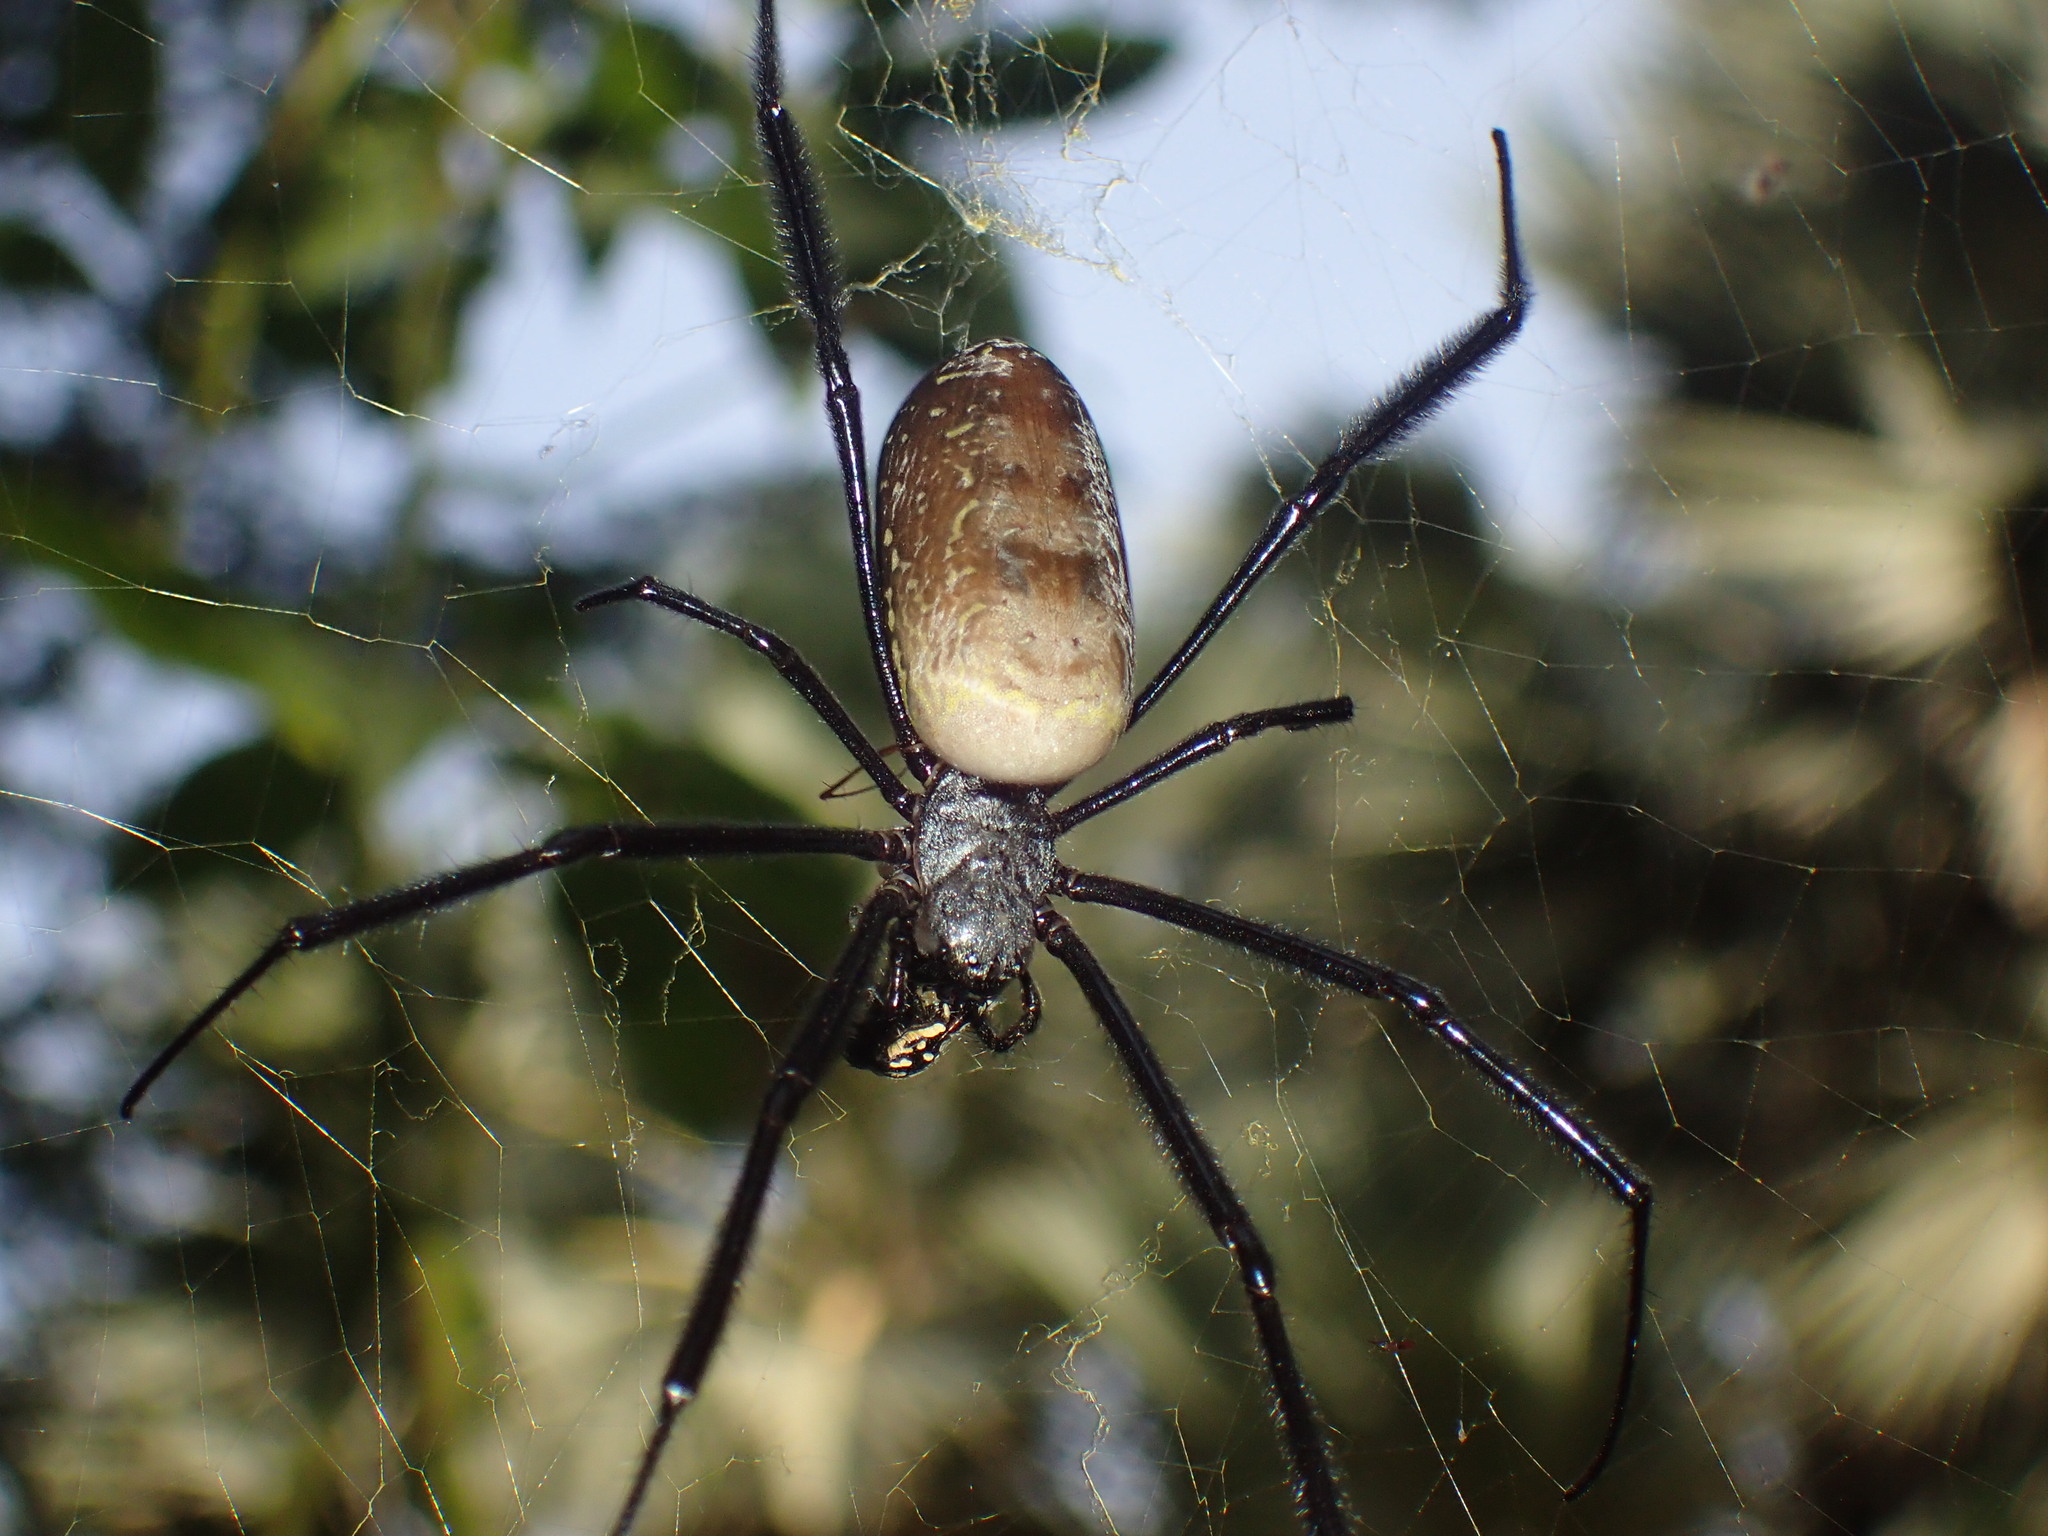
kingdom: Animalia
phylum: Arthropoda
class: Arachnida
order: Araneae
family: Araneidae
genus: Trichonephila
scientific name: Trichonephila fenestrata
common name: Hairy golden orb weaver
